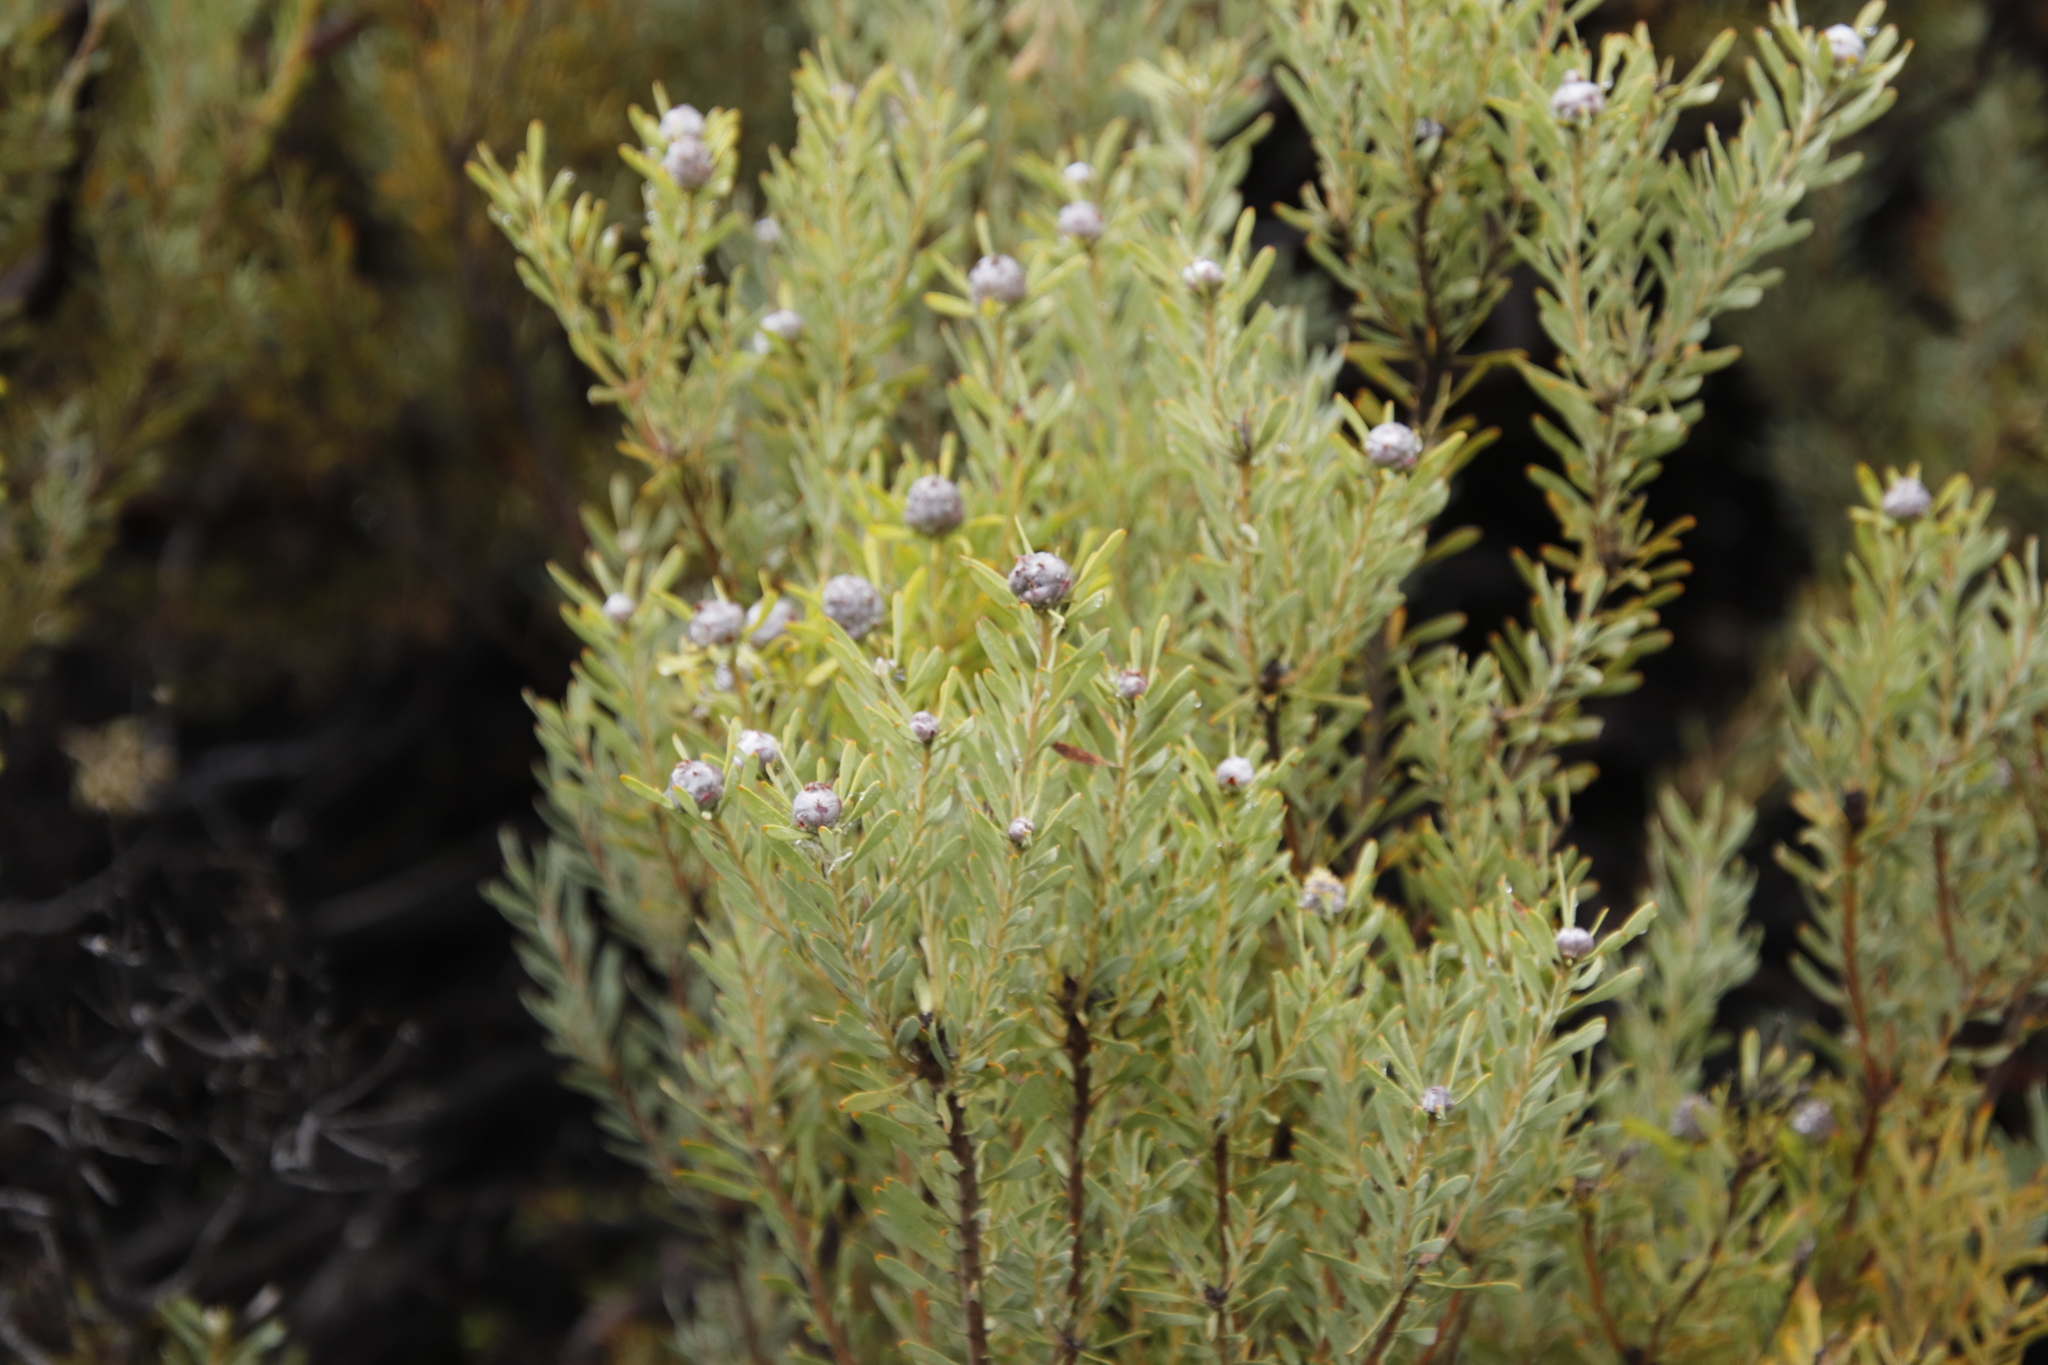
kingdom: Plantae
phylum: Tracheophyta
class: Magnoliopsida
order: Proteales
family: Proteaceae
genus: Leucadendron
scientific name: Leucadendron pubescens
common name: Grey conebush
